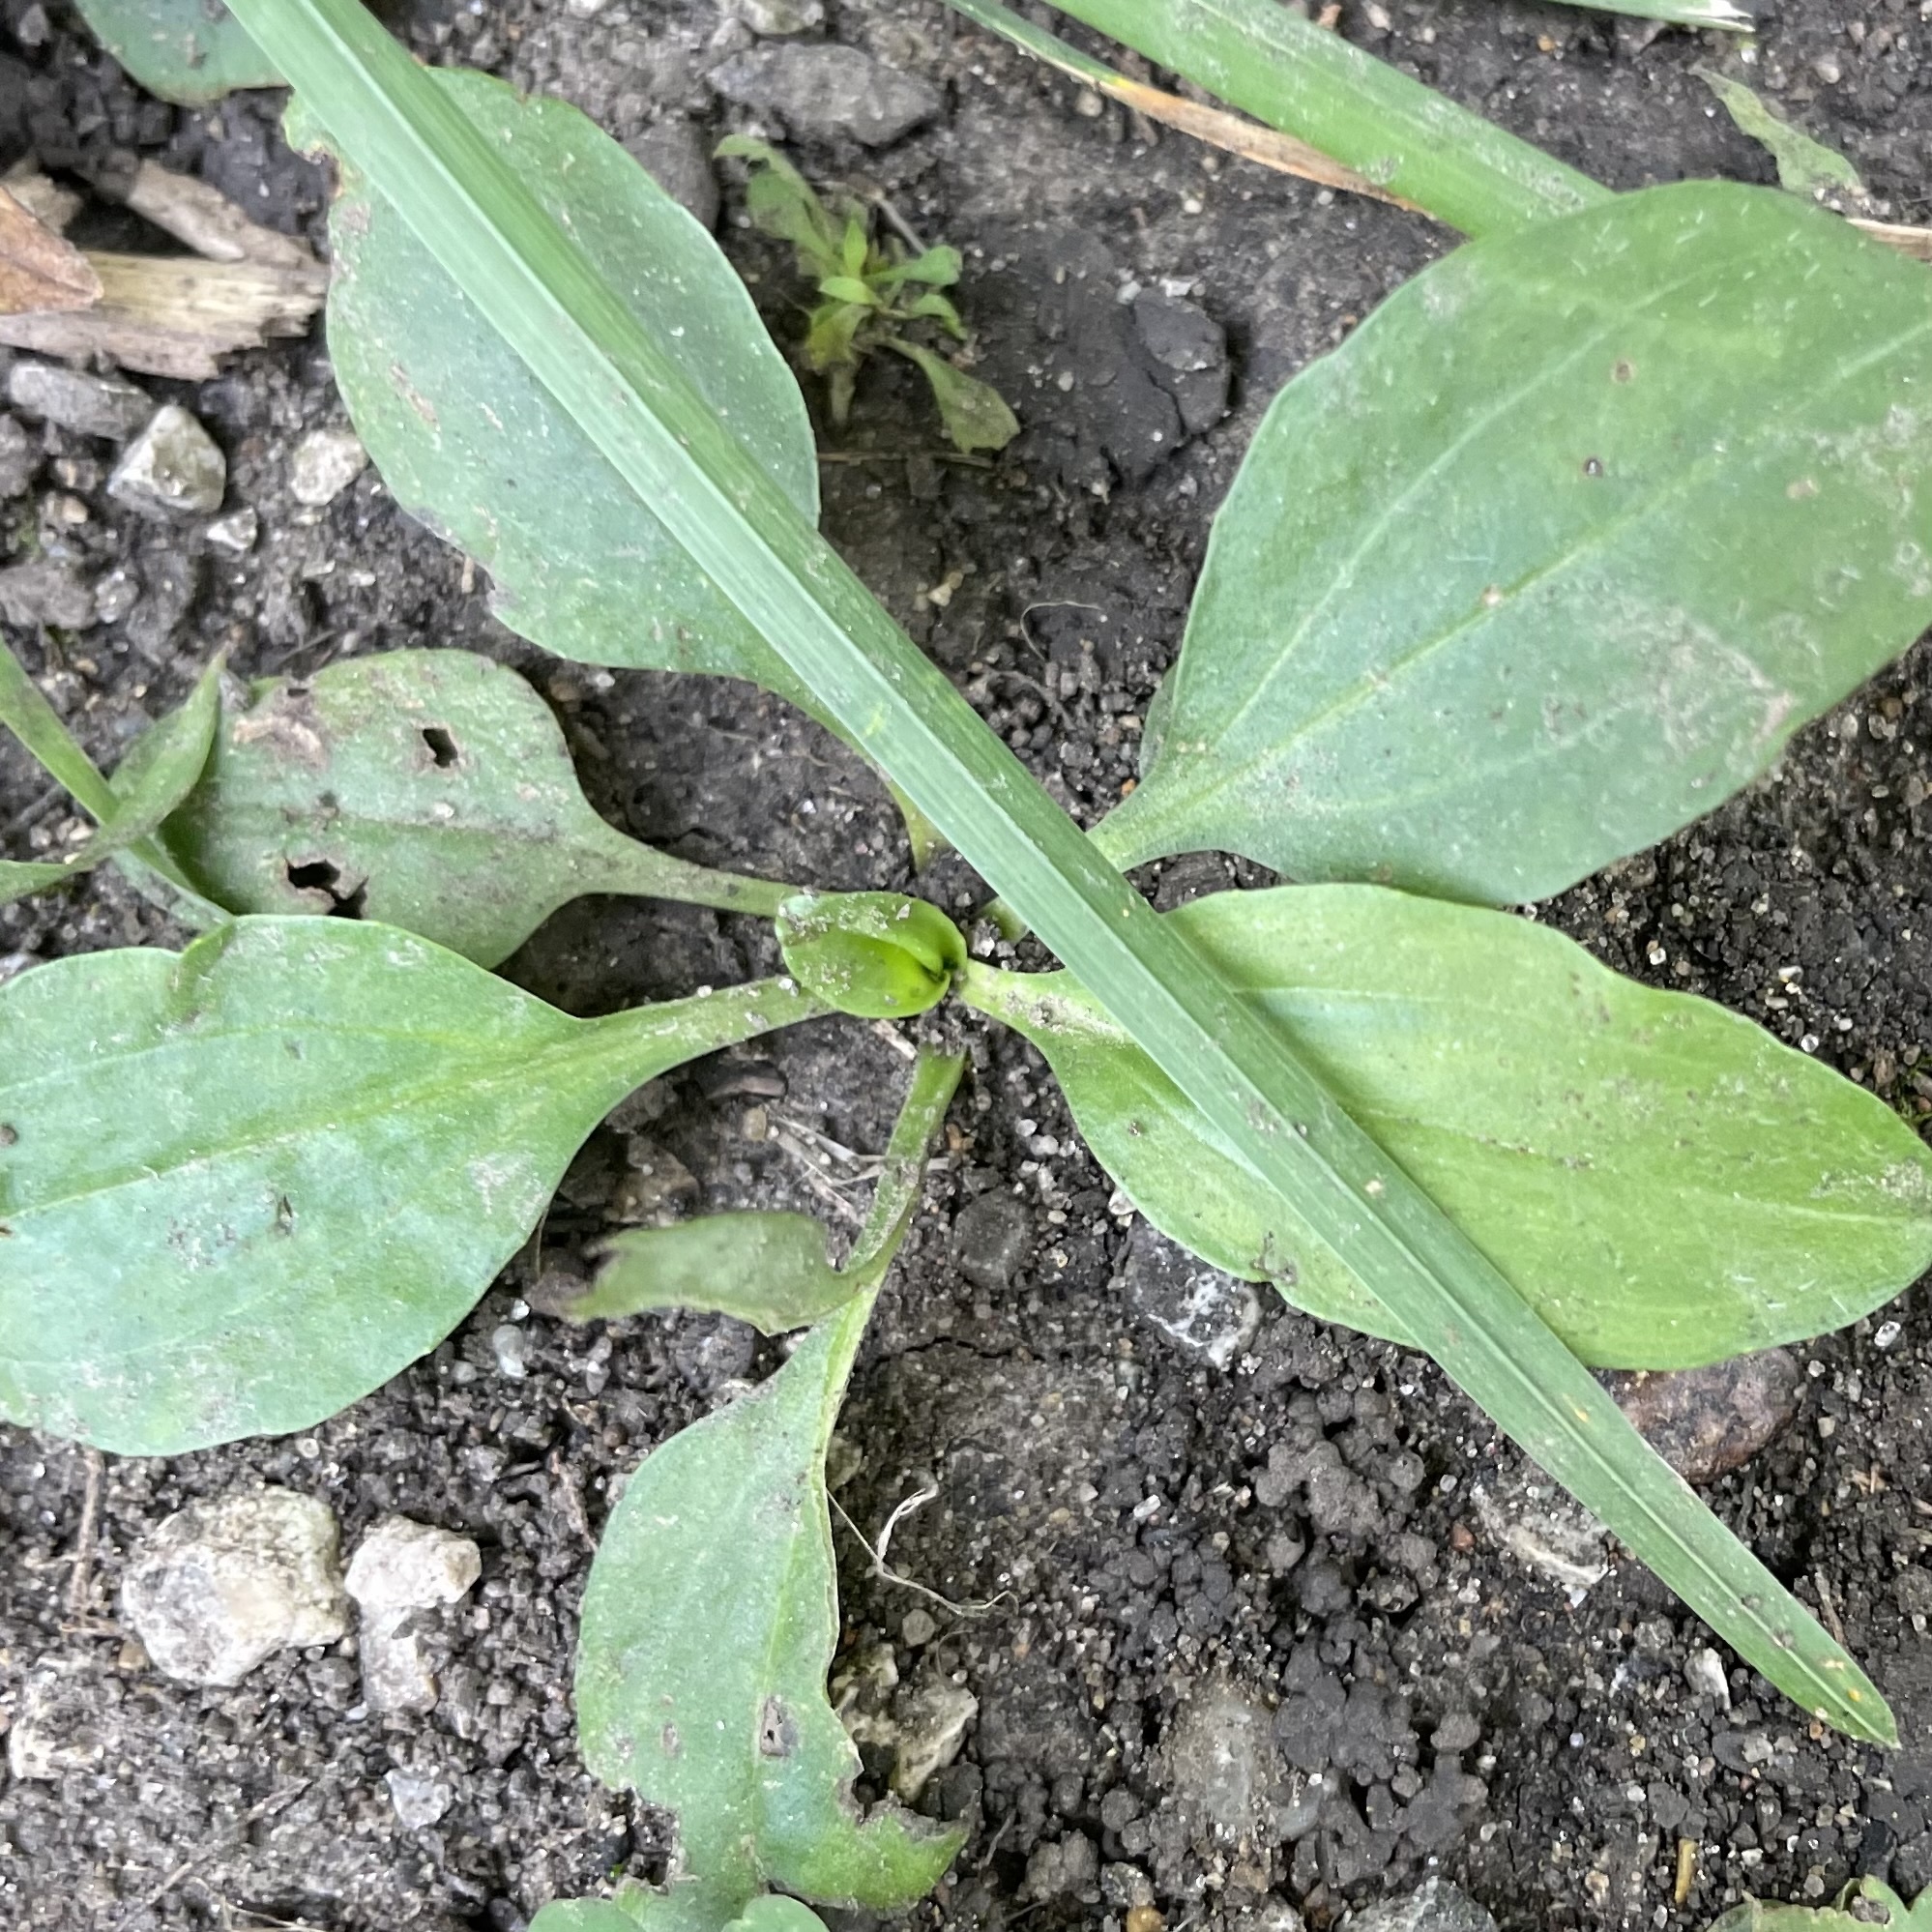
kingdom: Plantae
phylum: Tracheophyta
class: Magnoliopsida
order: Lamiales
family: Plantaginaceae
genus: Plantago
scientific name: Plantago major
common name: Common plantain
